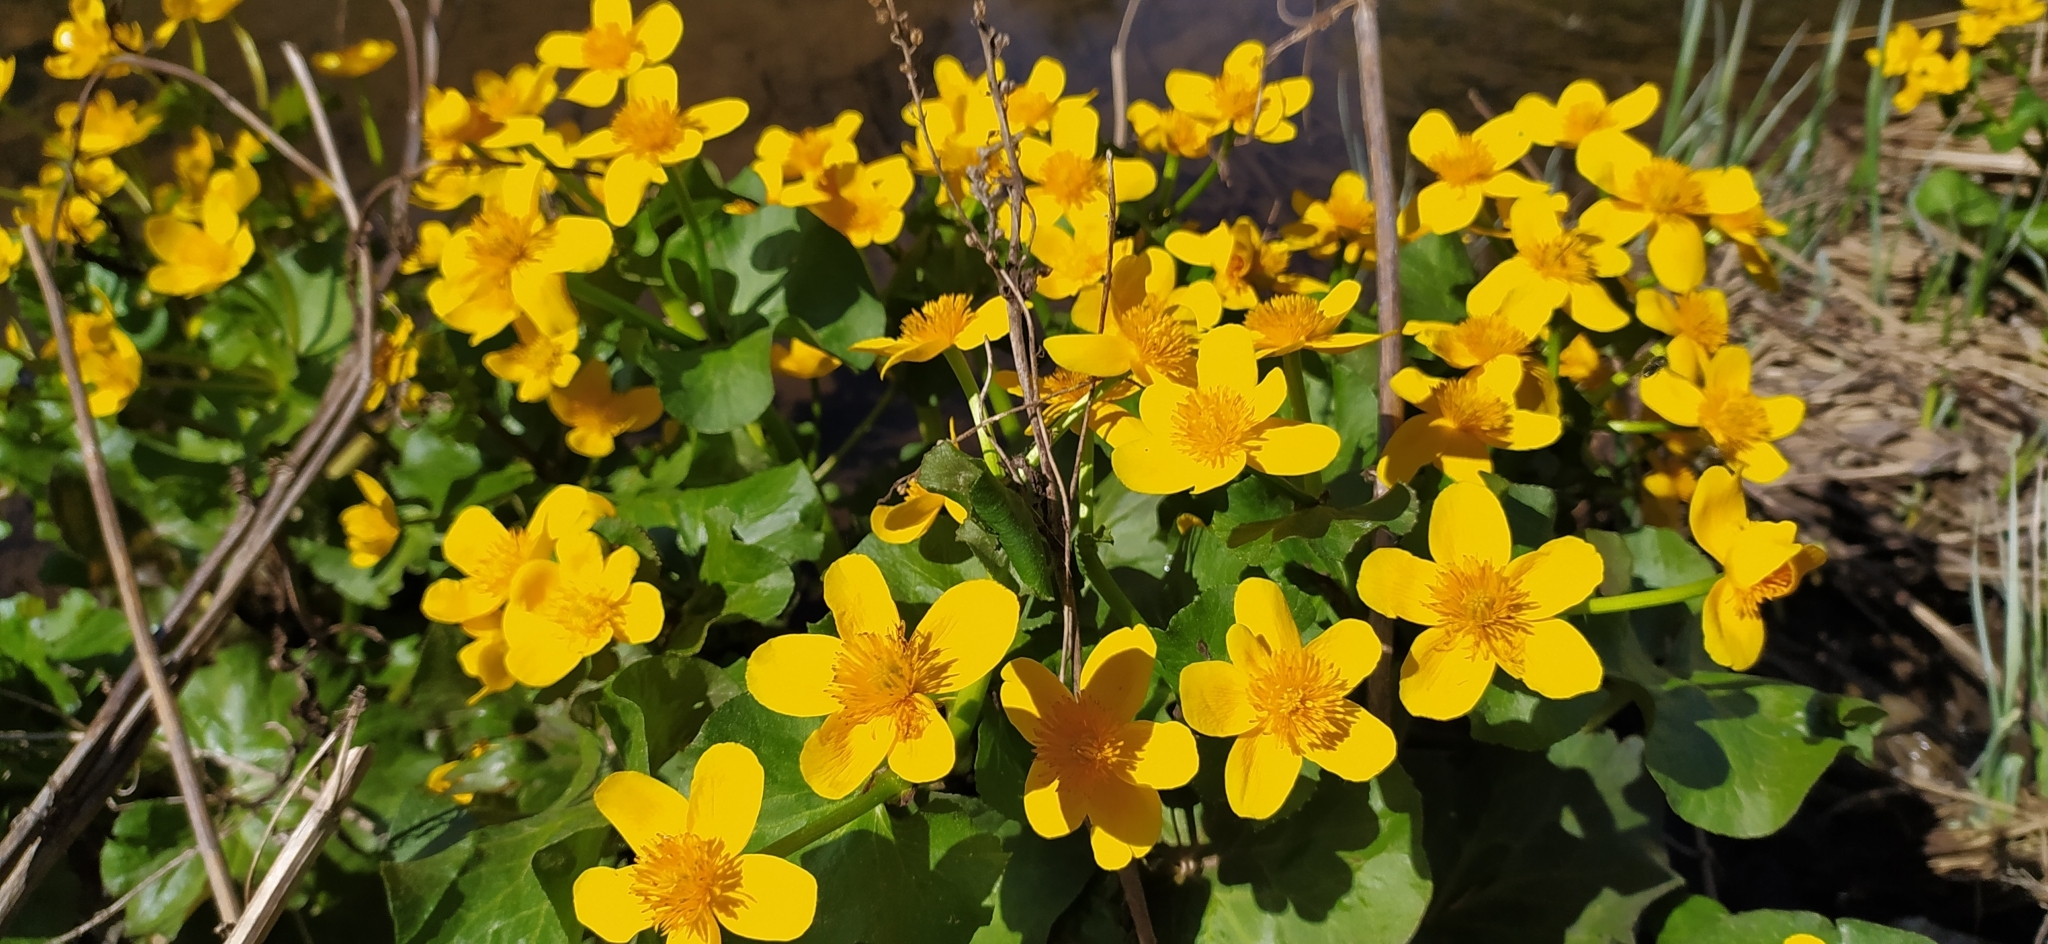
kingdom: Plantae
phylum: Tracheophyta
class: Magnoliopsida
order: Ranunculales
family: Ranunculaceae
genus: Caltha
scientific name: Caltha palustris
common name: Marsh marigold
